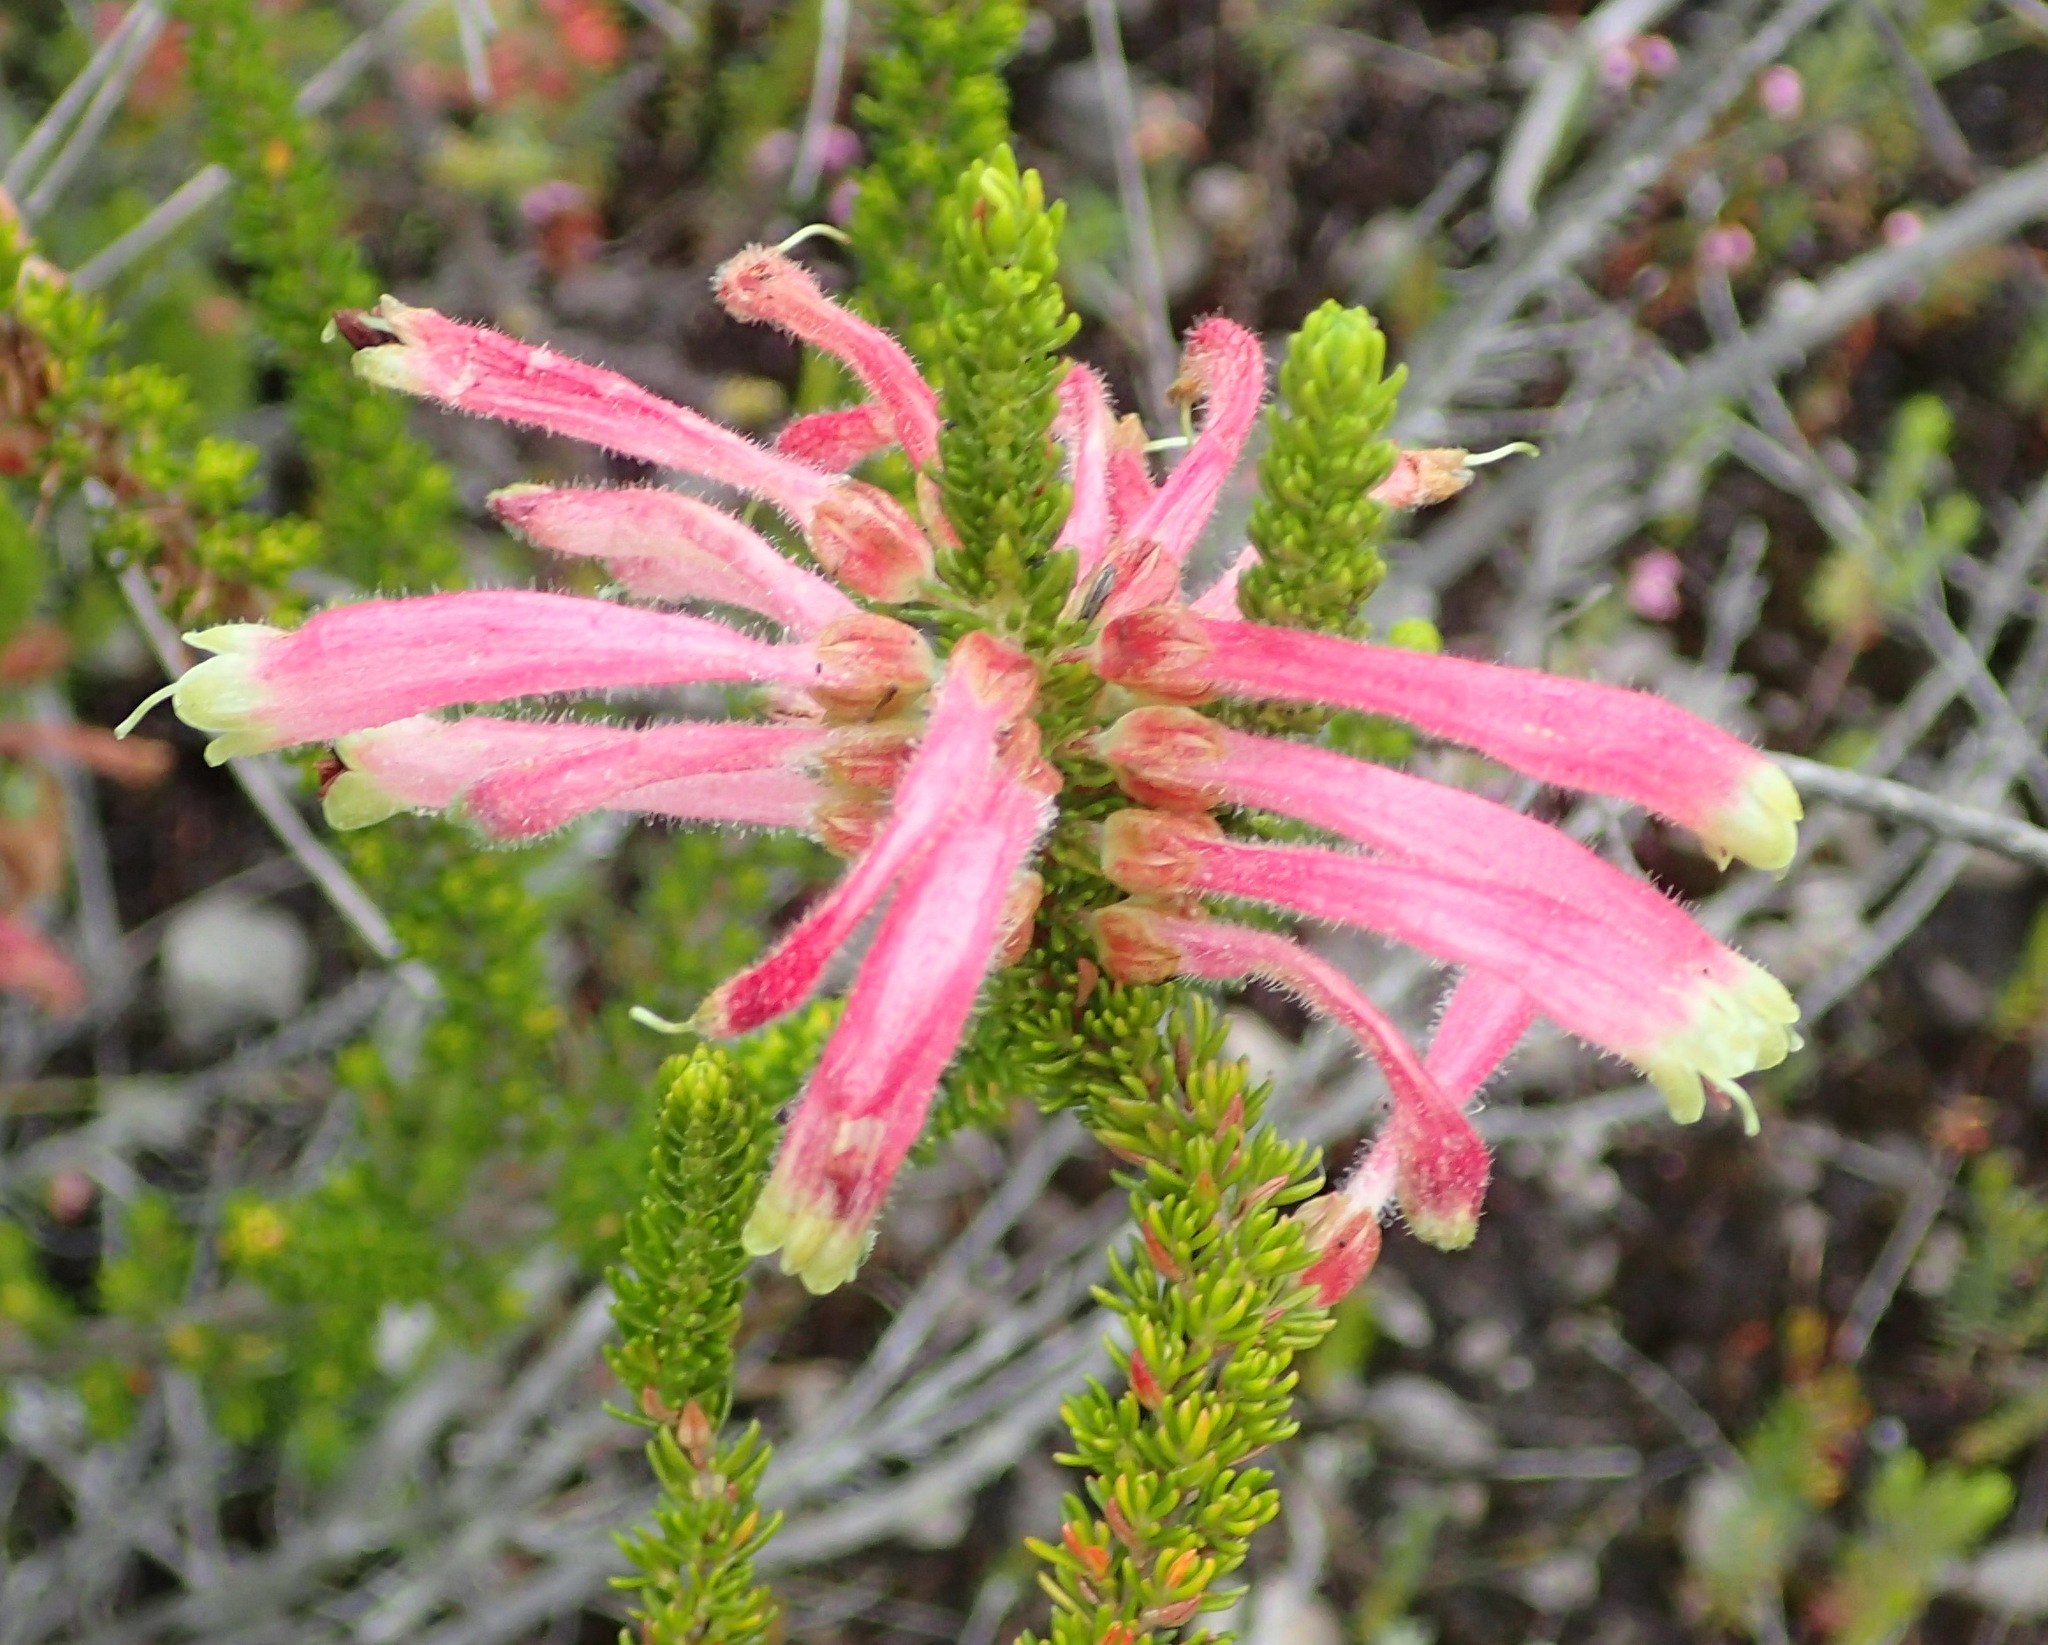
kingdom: Plantae
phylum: Tracheophyta
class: Magnoliopsida
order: Ericales
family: Ericaceae
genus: Erica
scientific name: Erica densifolia
